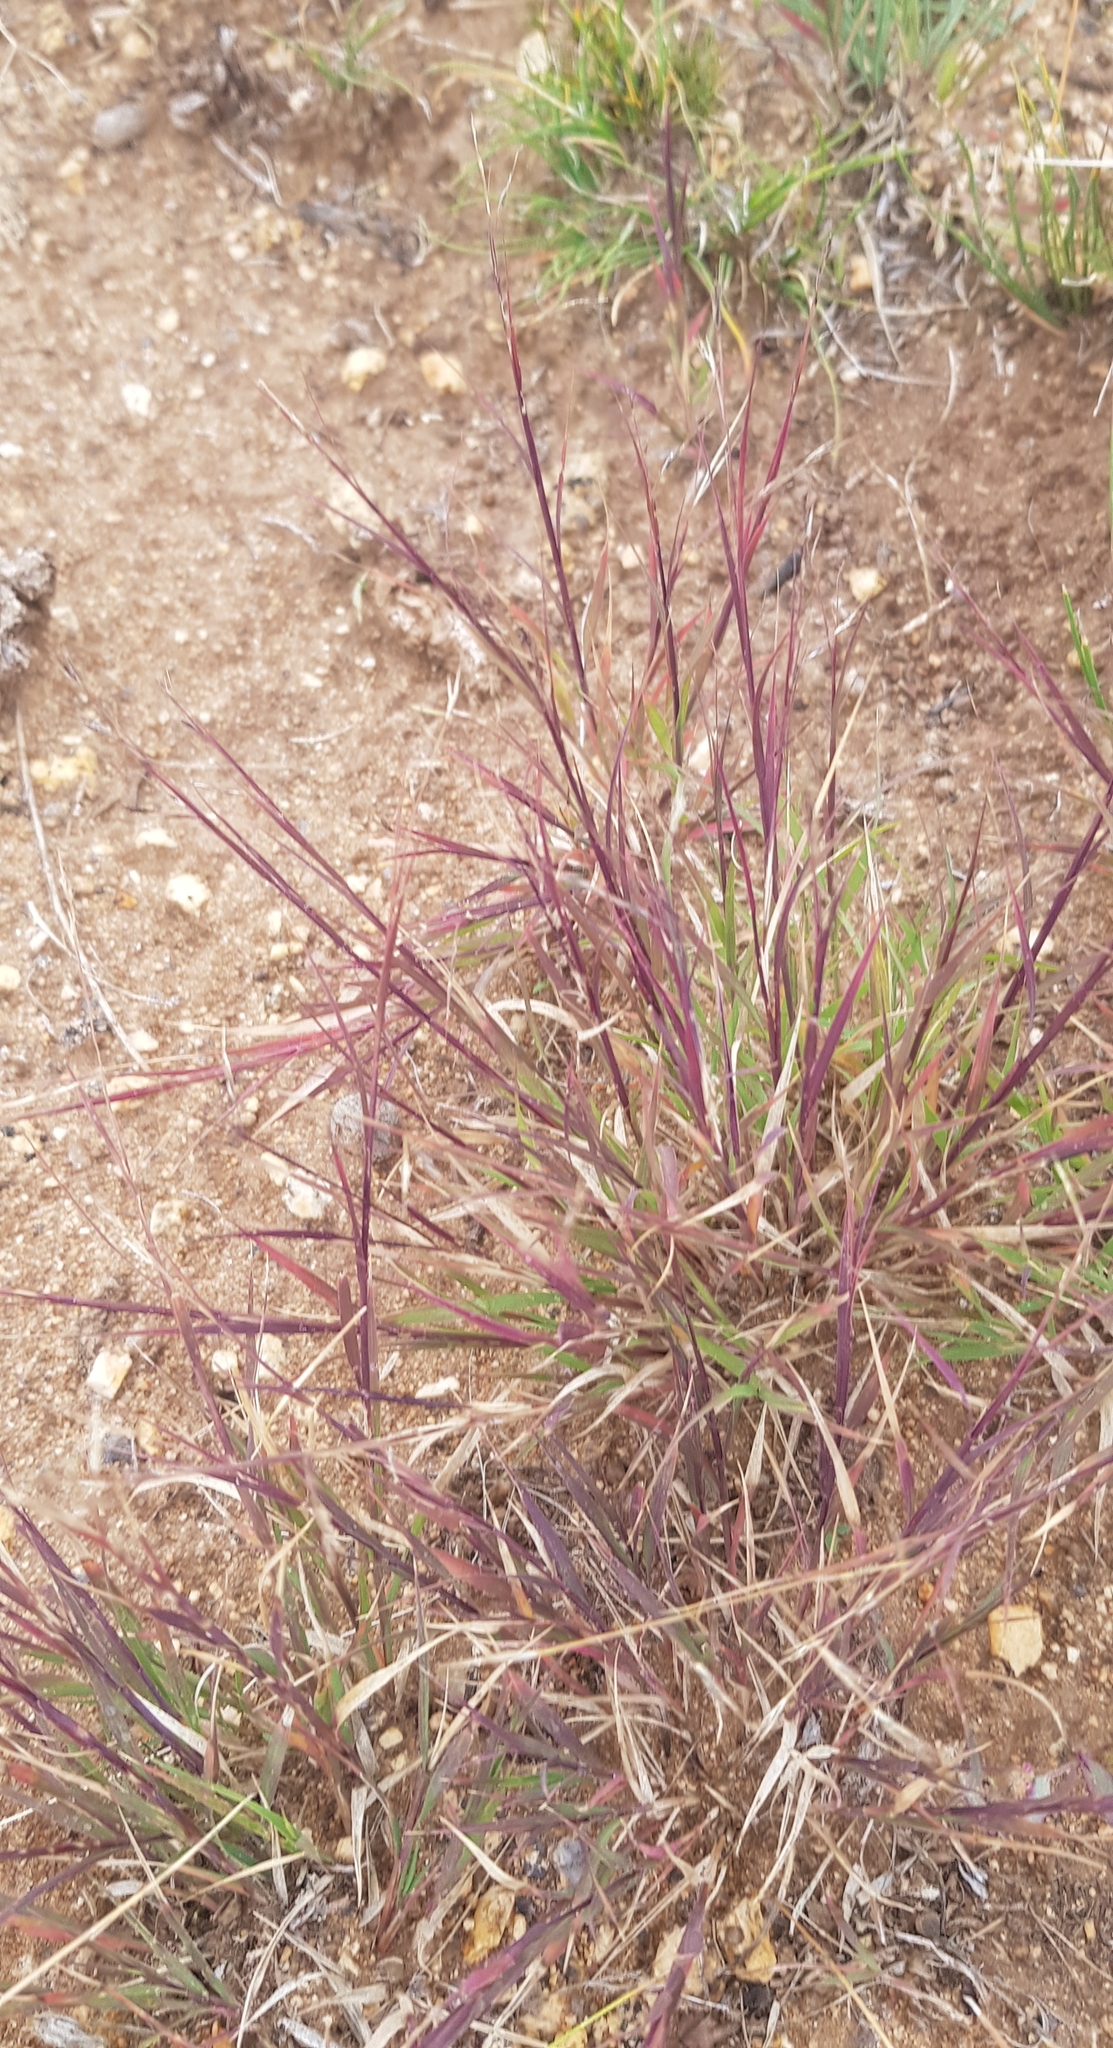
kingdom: Plantae
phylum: Tracheophyta
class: Liliopsida
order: Poales
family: Poaceae
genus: Cleistogenes
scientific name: Cleistogenes squarrosa
